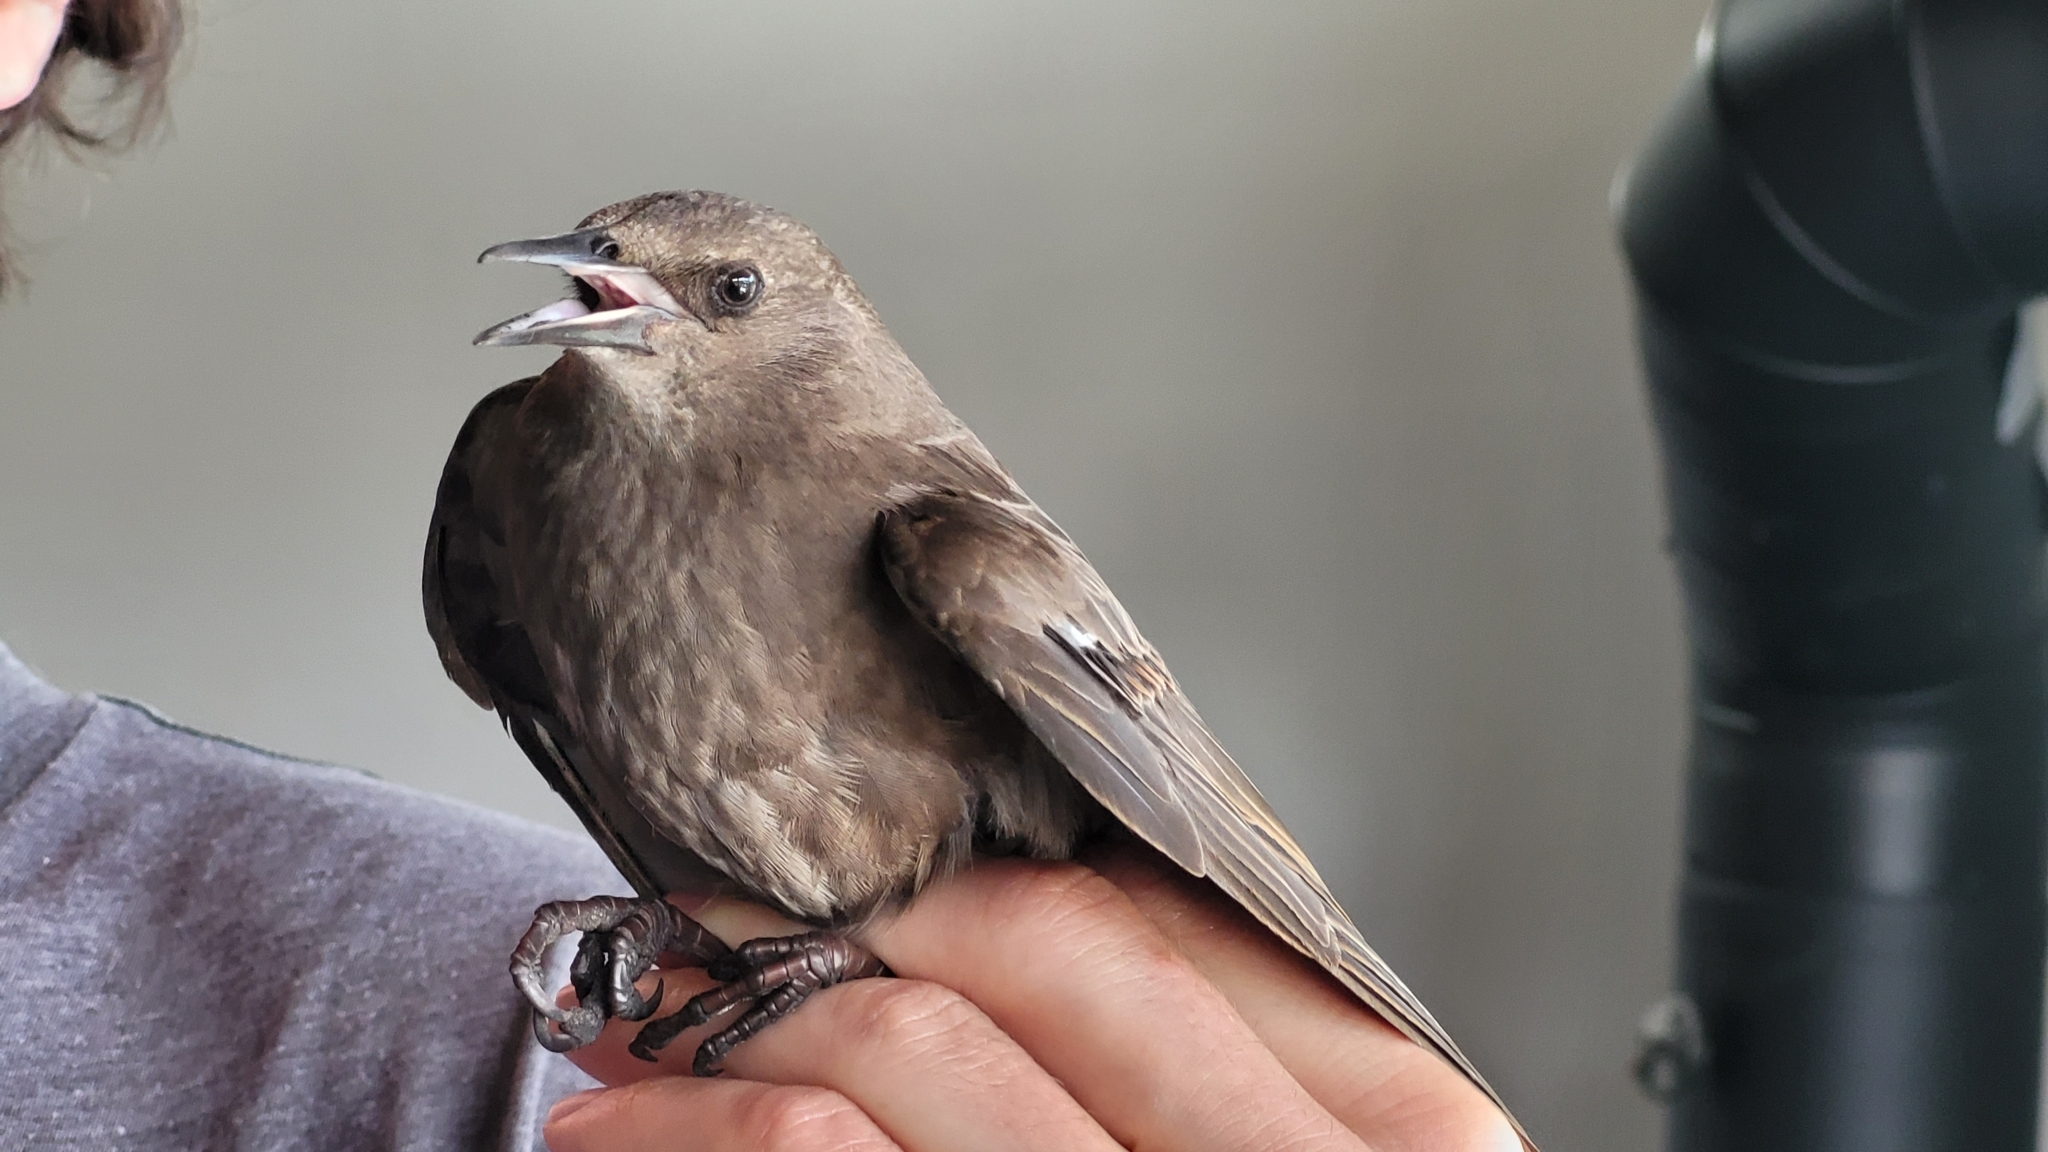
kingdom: Animalia
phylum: Chordata
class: Aves
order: Passeriformes
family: Sturnidae
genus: Sturnus
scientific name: Sturnus vulgaris
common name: Common starling
